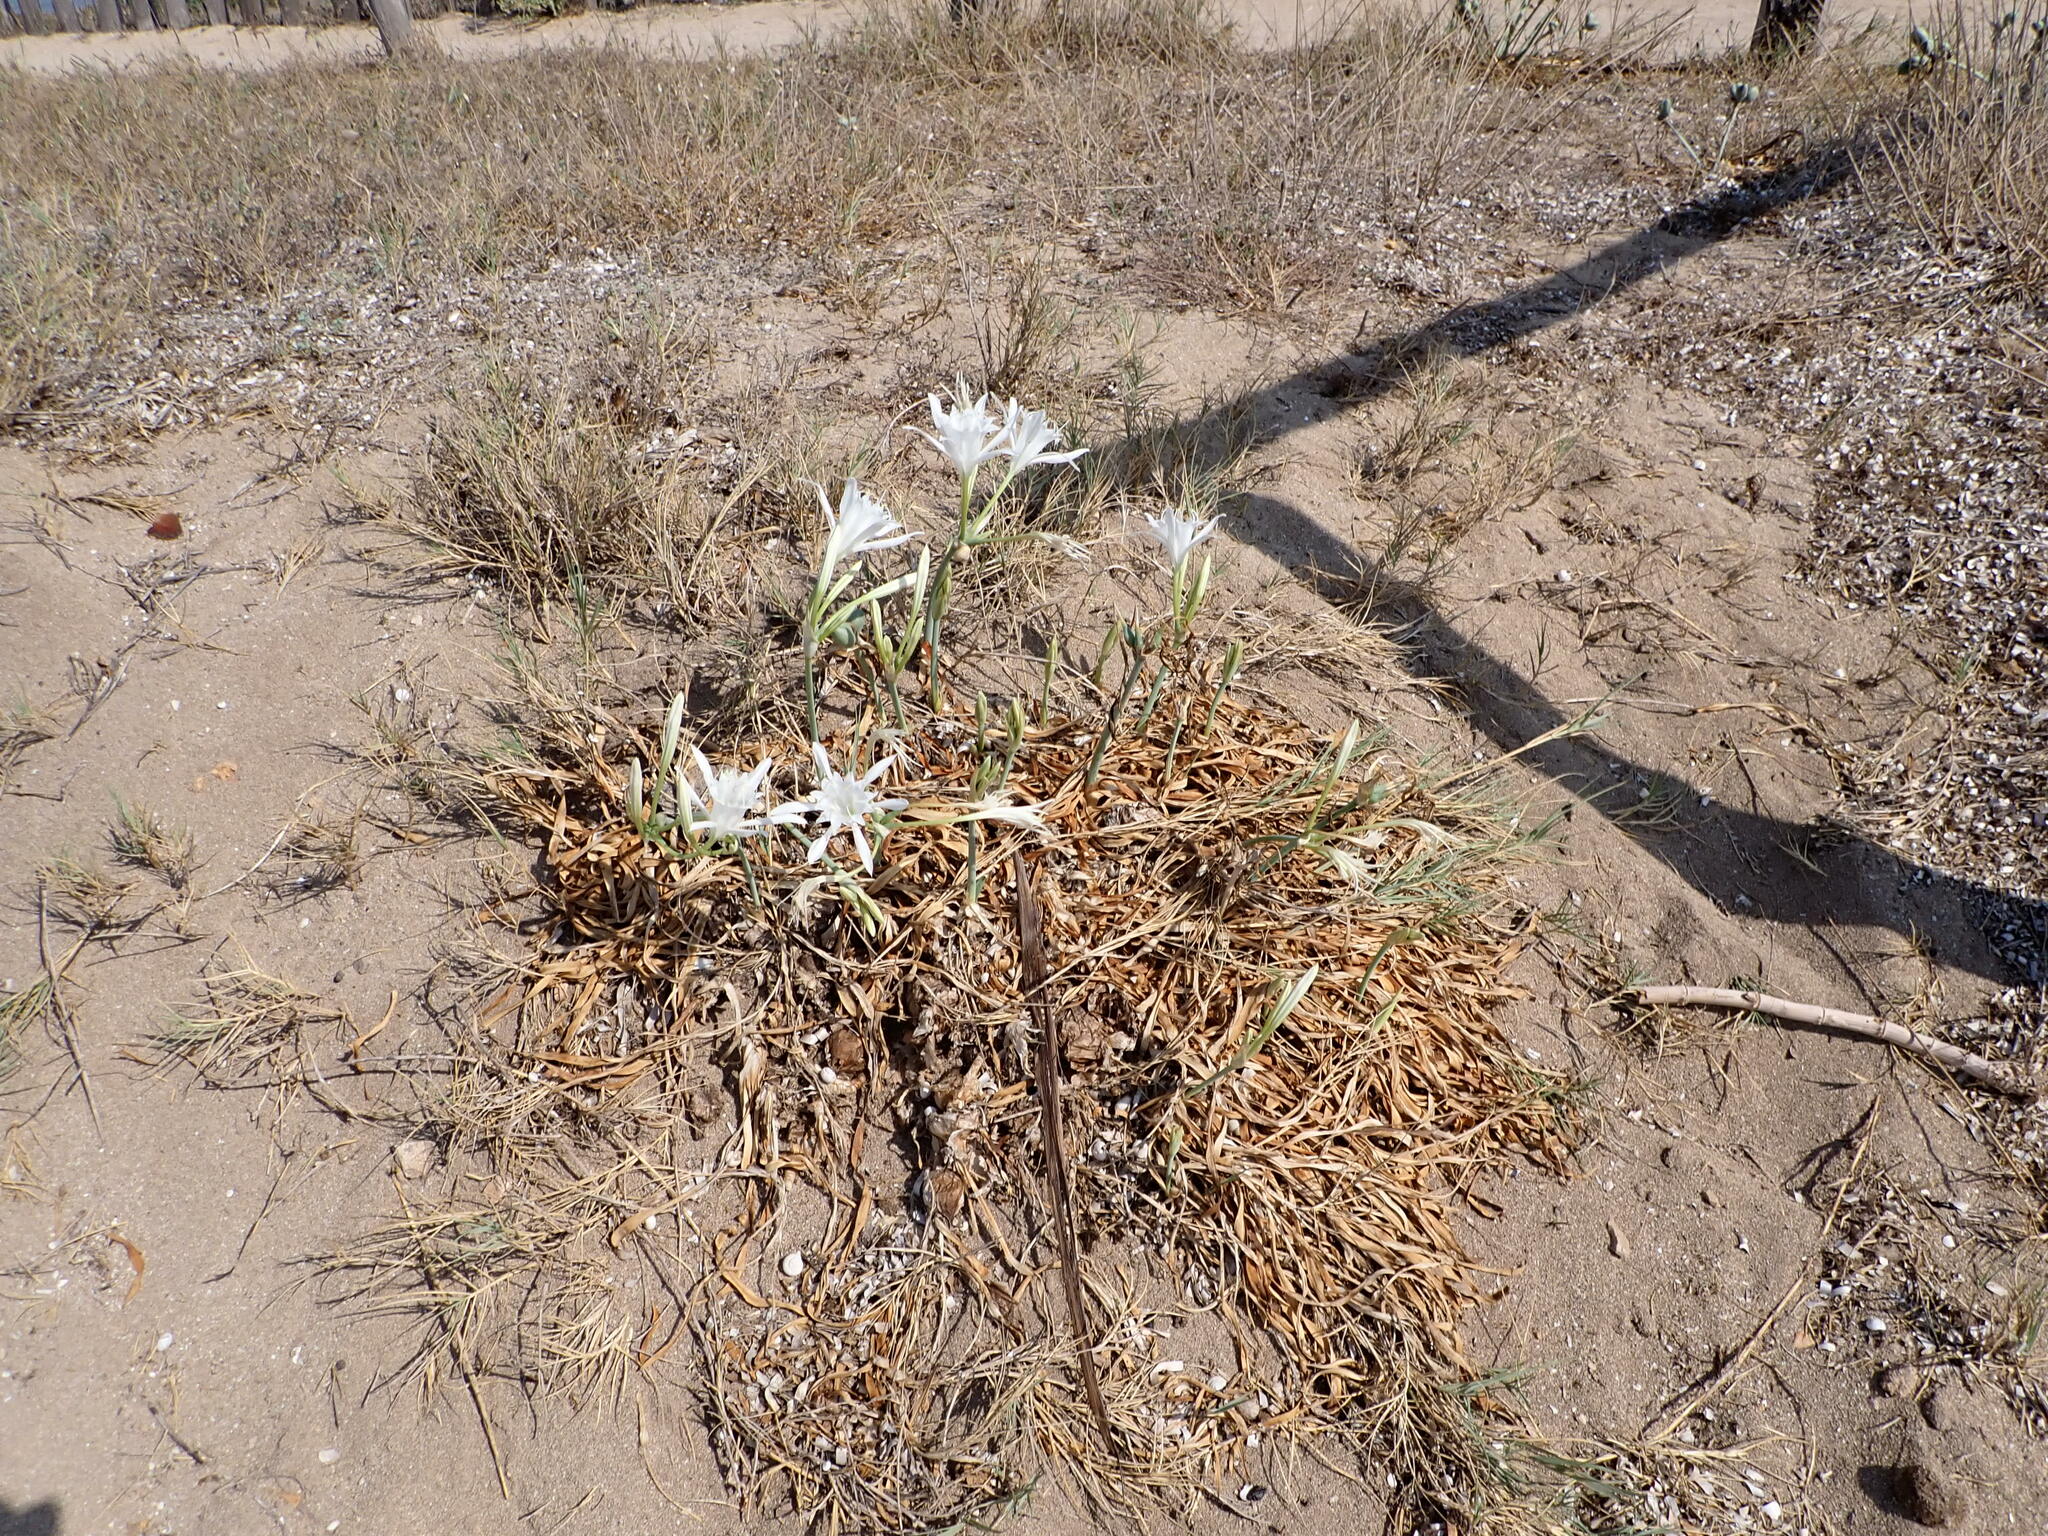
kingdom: Plantae
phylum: Tracheophyta
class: Liliopsida
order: Asparagales
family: Amaryllidaceae
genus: Pancratium
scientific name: Pancratium maritimum
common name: Sea-daffodil
